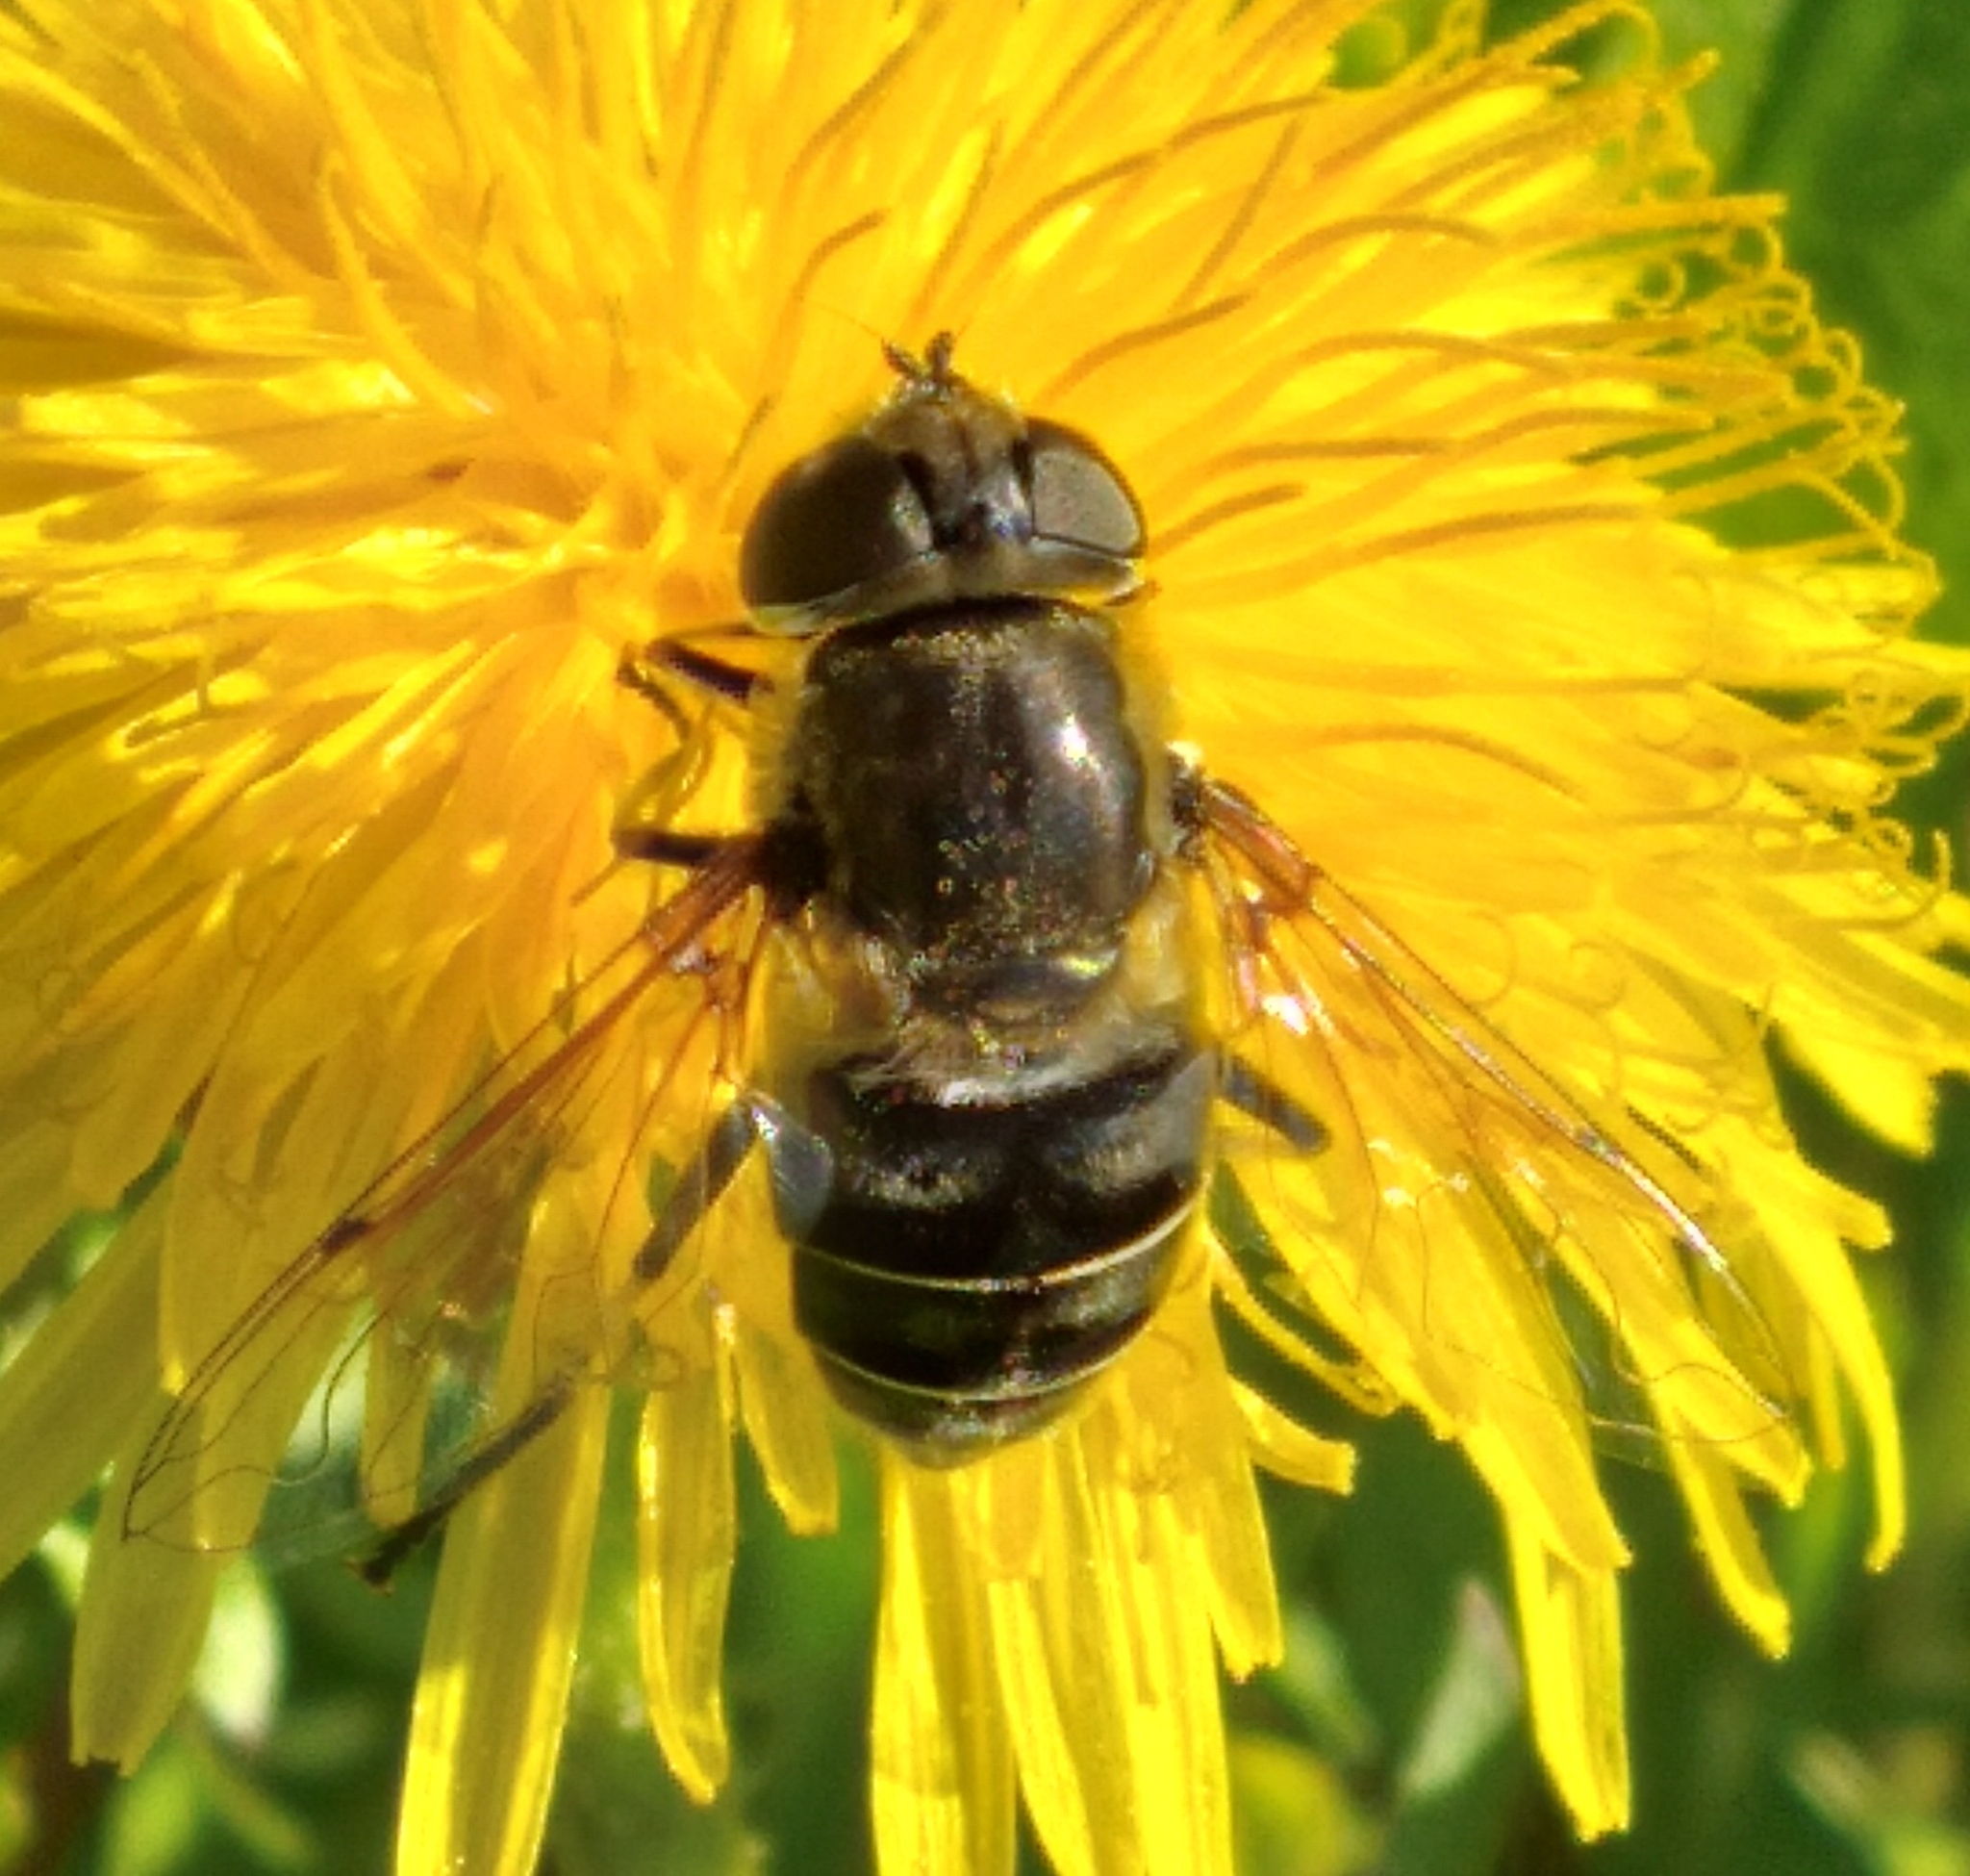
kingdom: Animalia
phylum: Arthropoda
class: Insecta
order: Diptera
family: Syrphidae
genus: Eristalis
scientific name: Eristalis dimidiata
